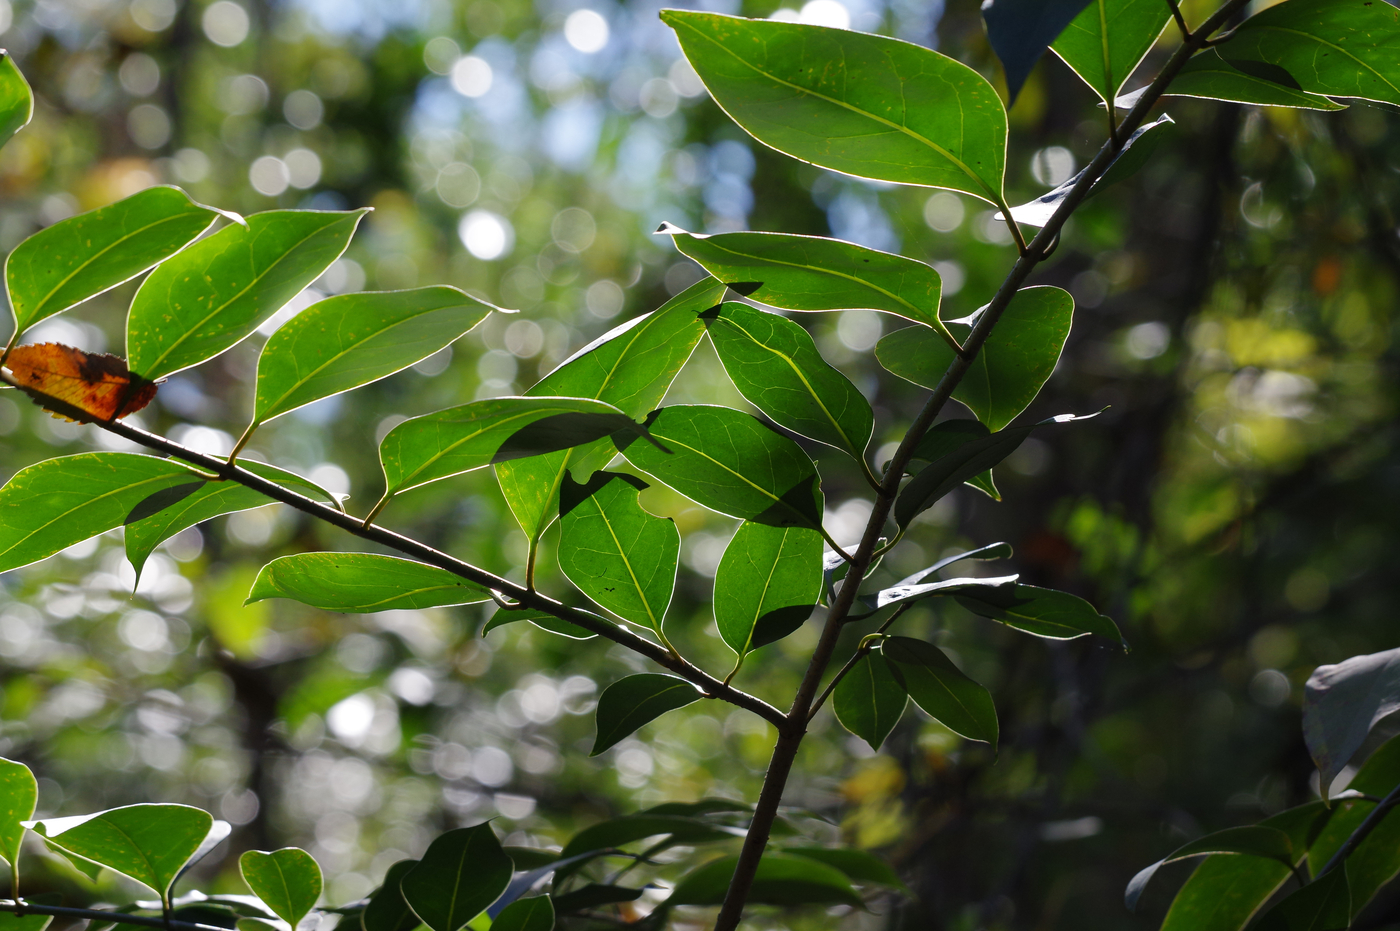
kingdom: Plantae
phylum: Tracheophyta
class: Magnoliopsida
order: Lamiales
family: Oleaceae
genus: Ligustrum
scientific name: Ligustrum lucidum
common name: Glossy privet
